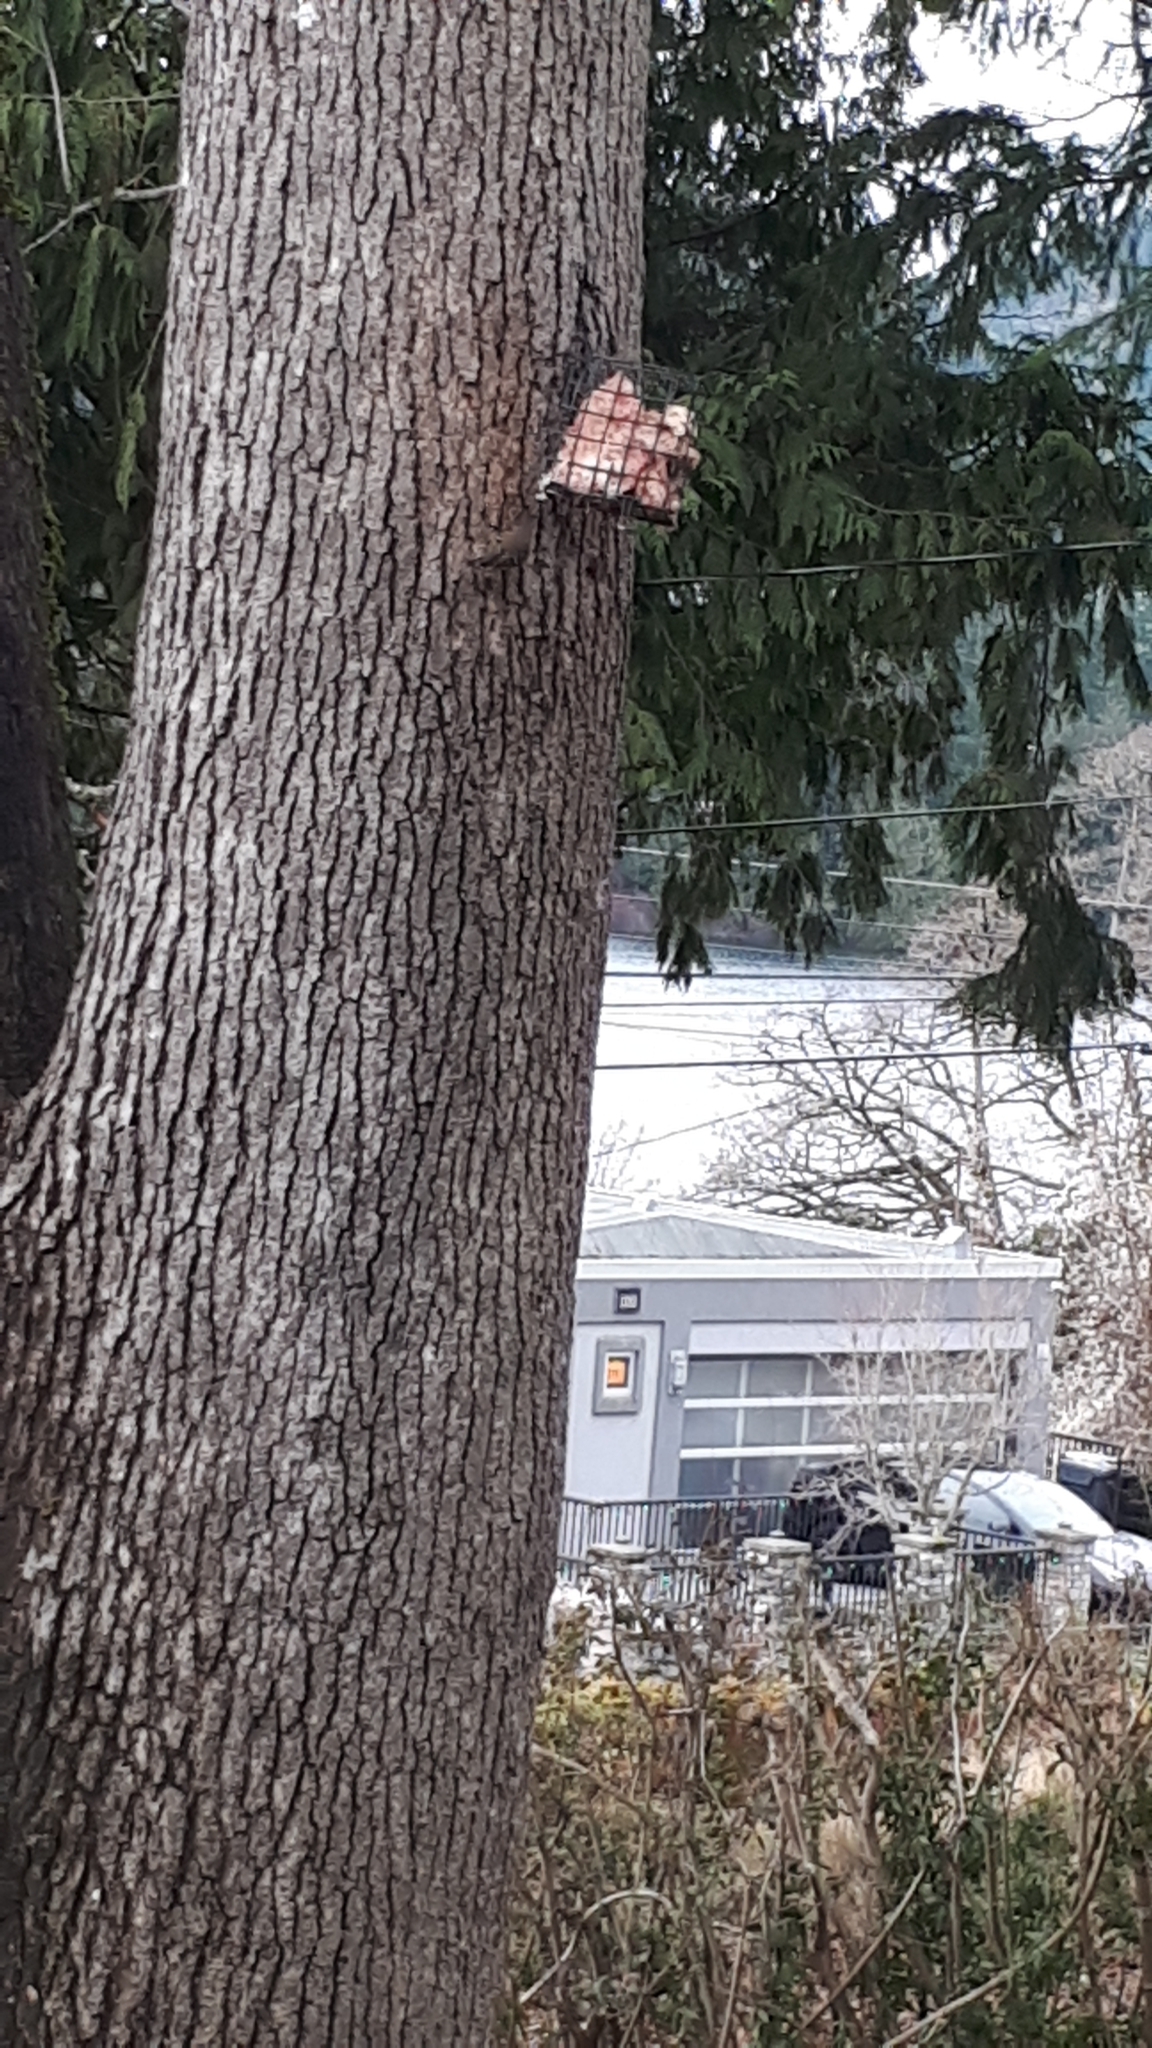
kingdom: Animalia
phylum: Chordata
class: Aves
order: Passeriformes
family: Regulidae
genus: Regulus
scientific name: Regulus calendula
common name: Ruby-crowned kinglet
